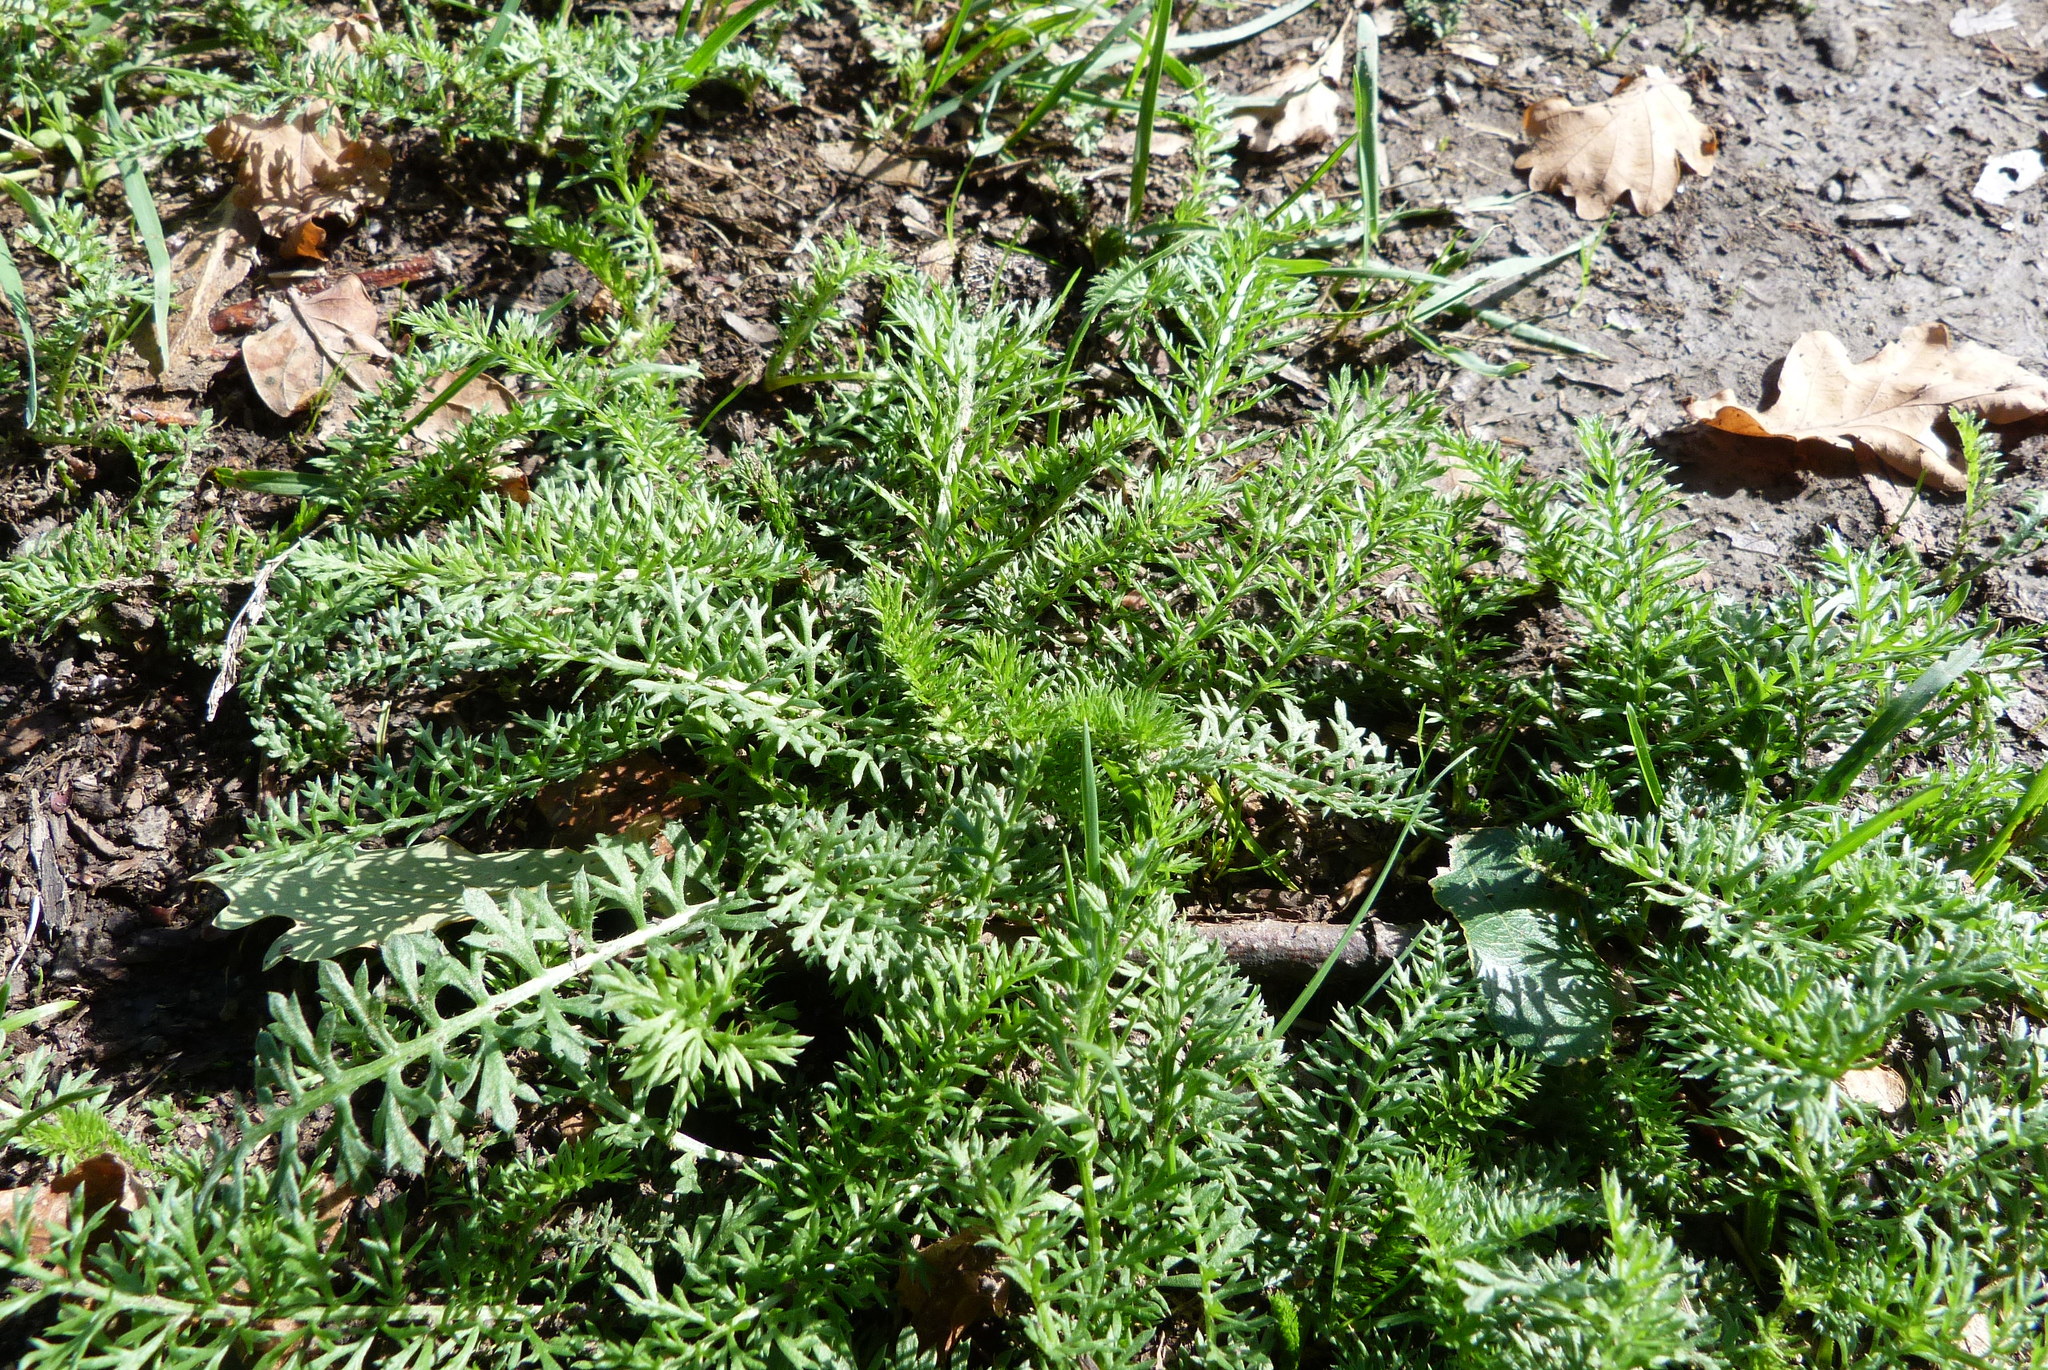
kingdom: Plantae
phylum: Tracheophyta
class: Magnoliopsida
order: Asterales
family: Asteraceae
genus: Achillea
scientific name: Achillea millefolium
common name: Yarrow
